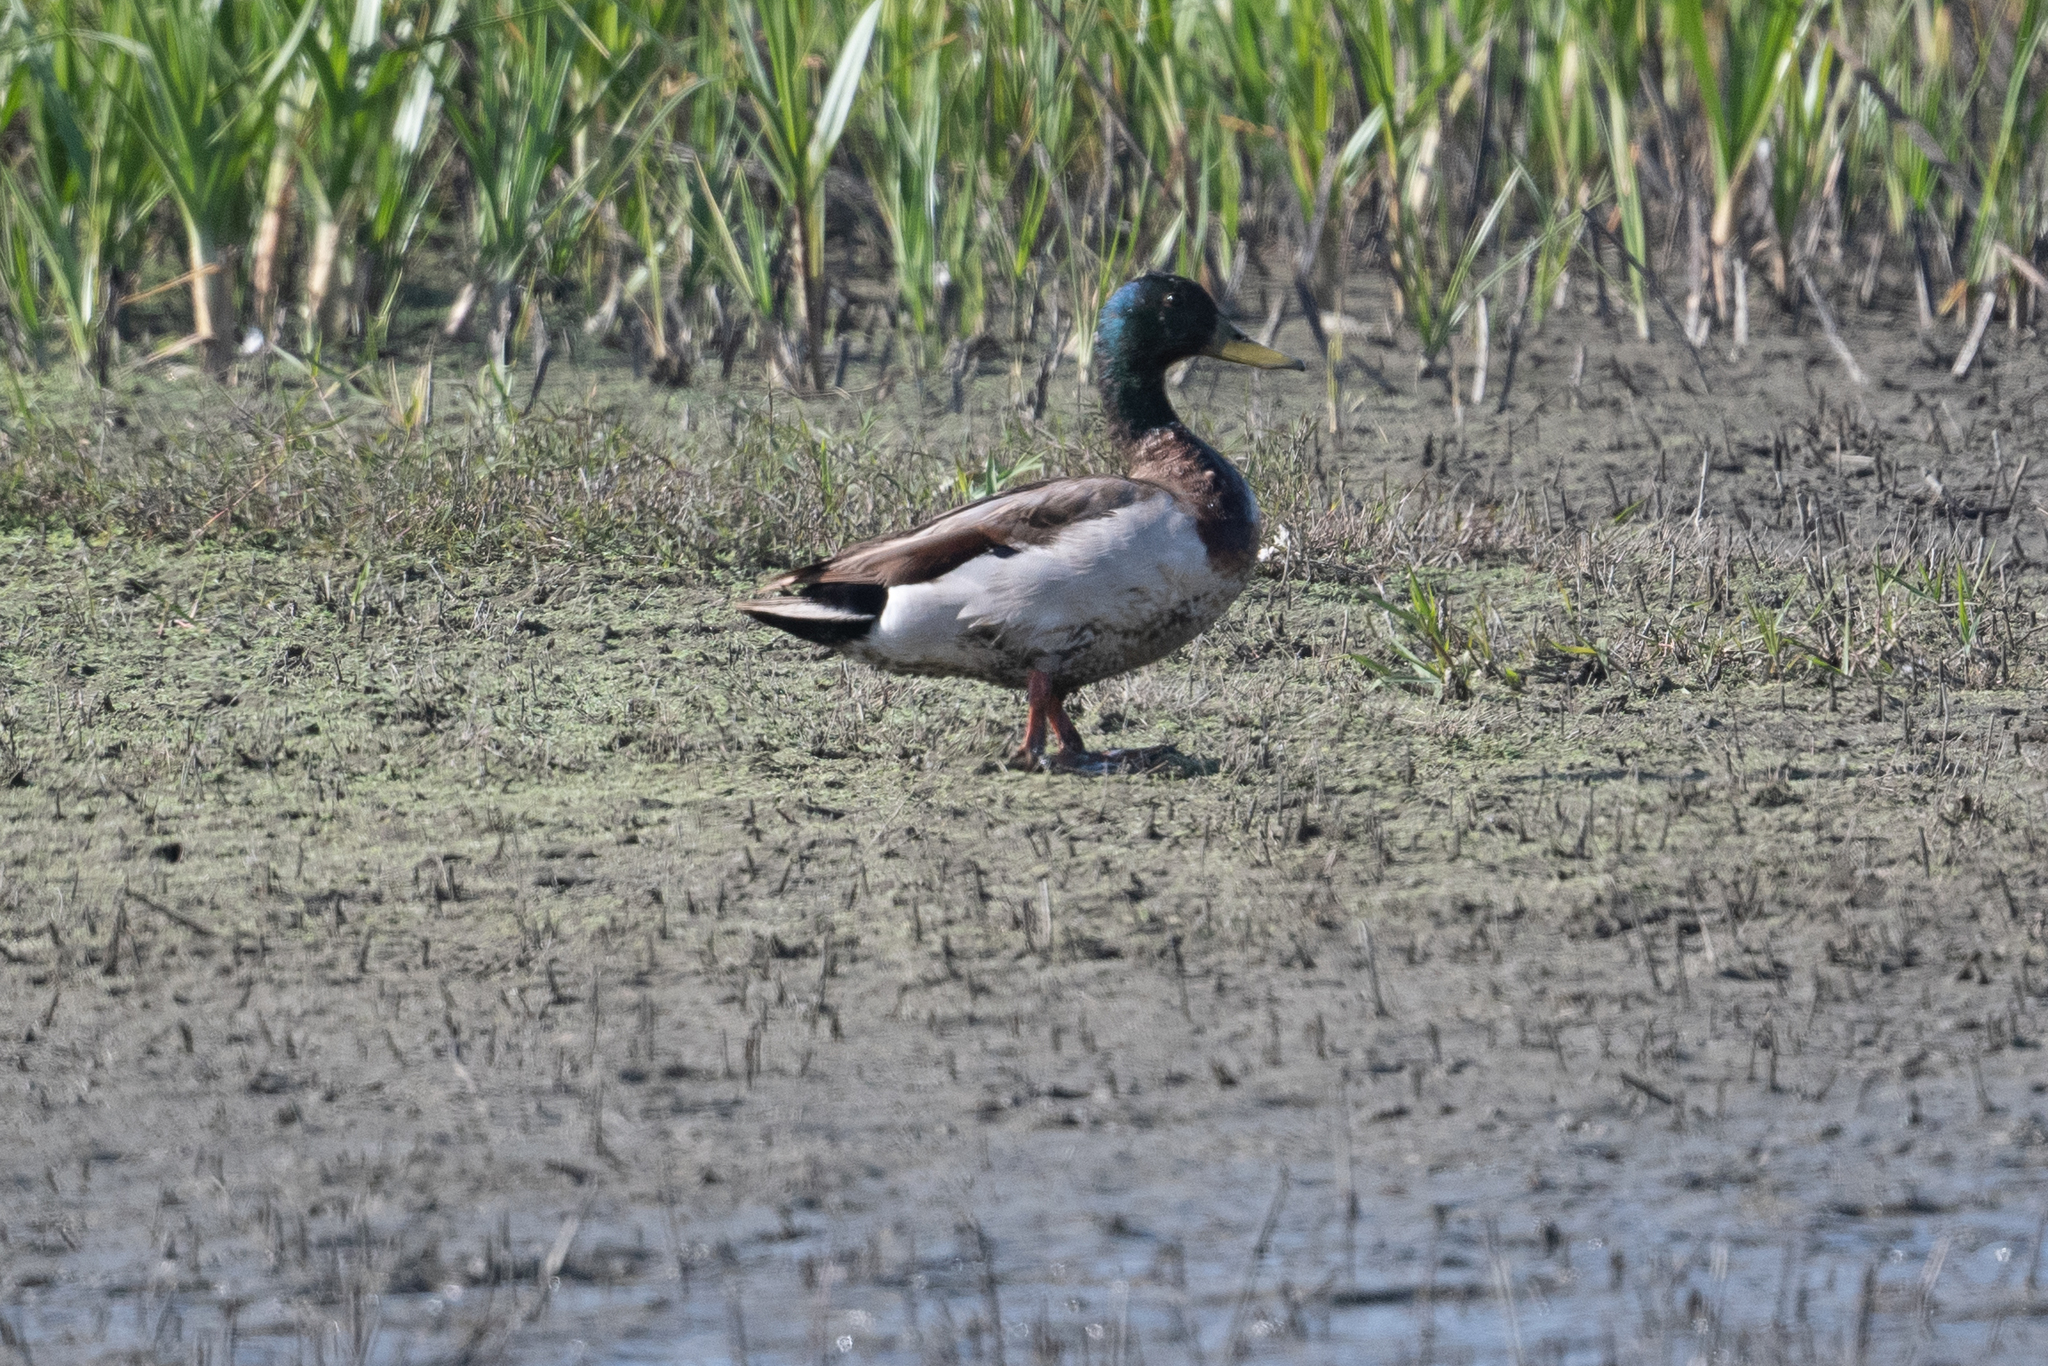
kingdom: Animalia
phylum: Chordata
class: Aves
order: Anseriformes
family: Anatidae
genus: Anas
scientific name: Anas platyrhynchos
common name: Mallard
